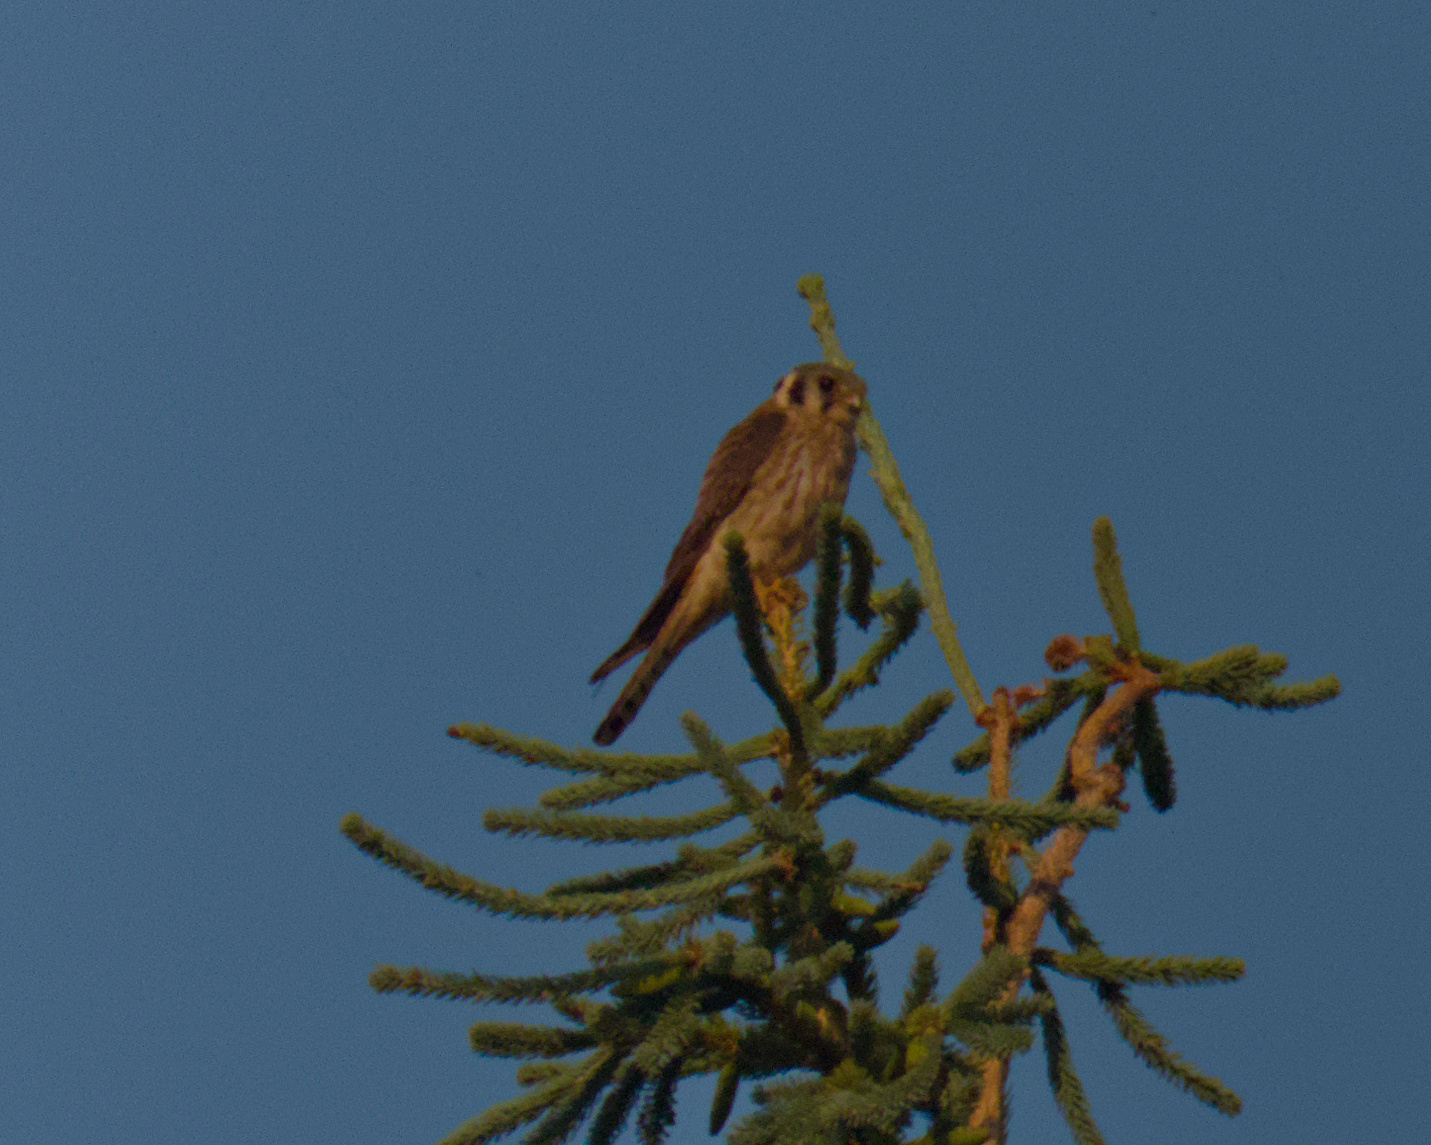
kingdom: Animalia
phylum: Chordata
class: Aves
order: Falconiformes
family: Falconidae
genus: Falco
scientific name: Falco sparverius
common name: American kestrel
